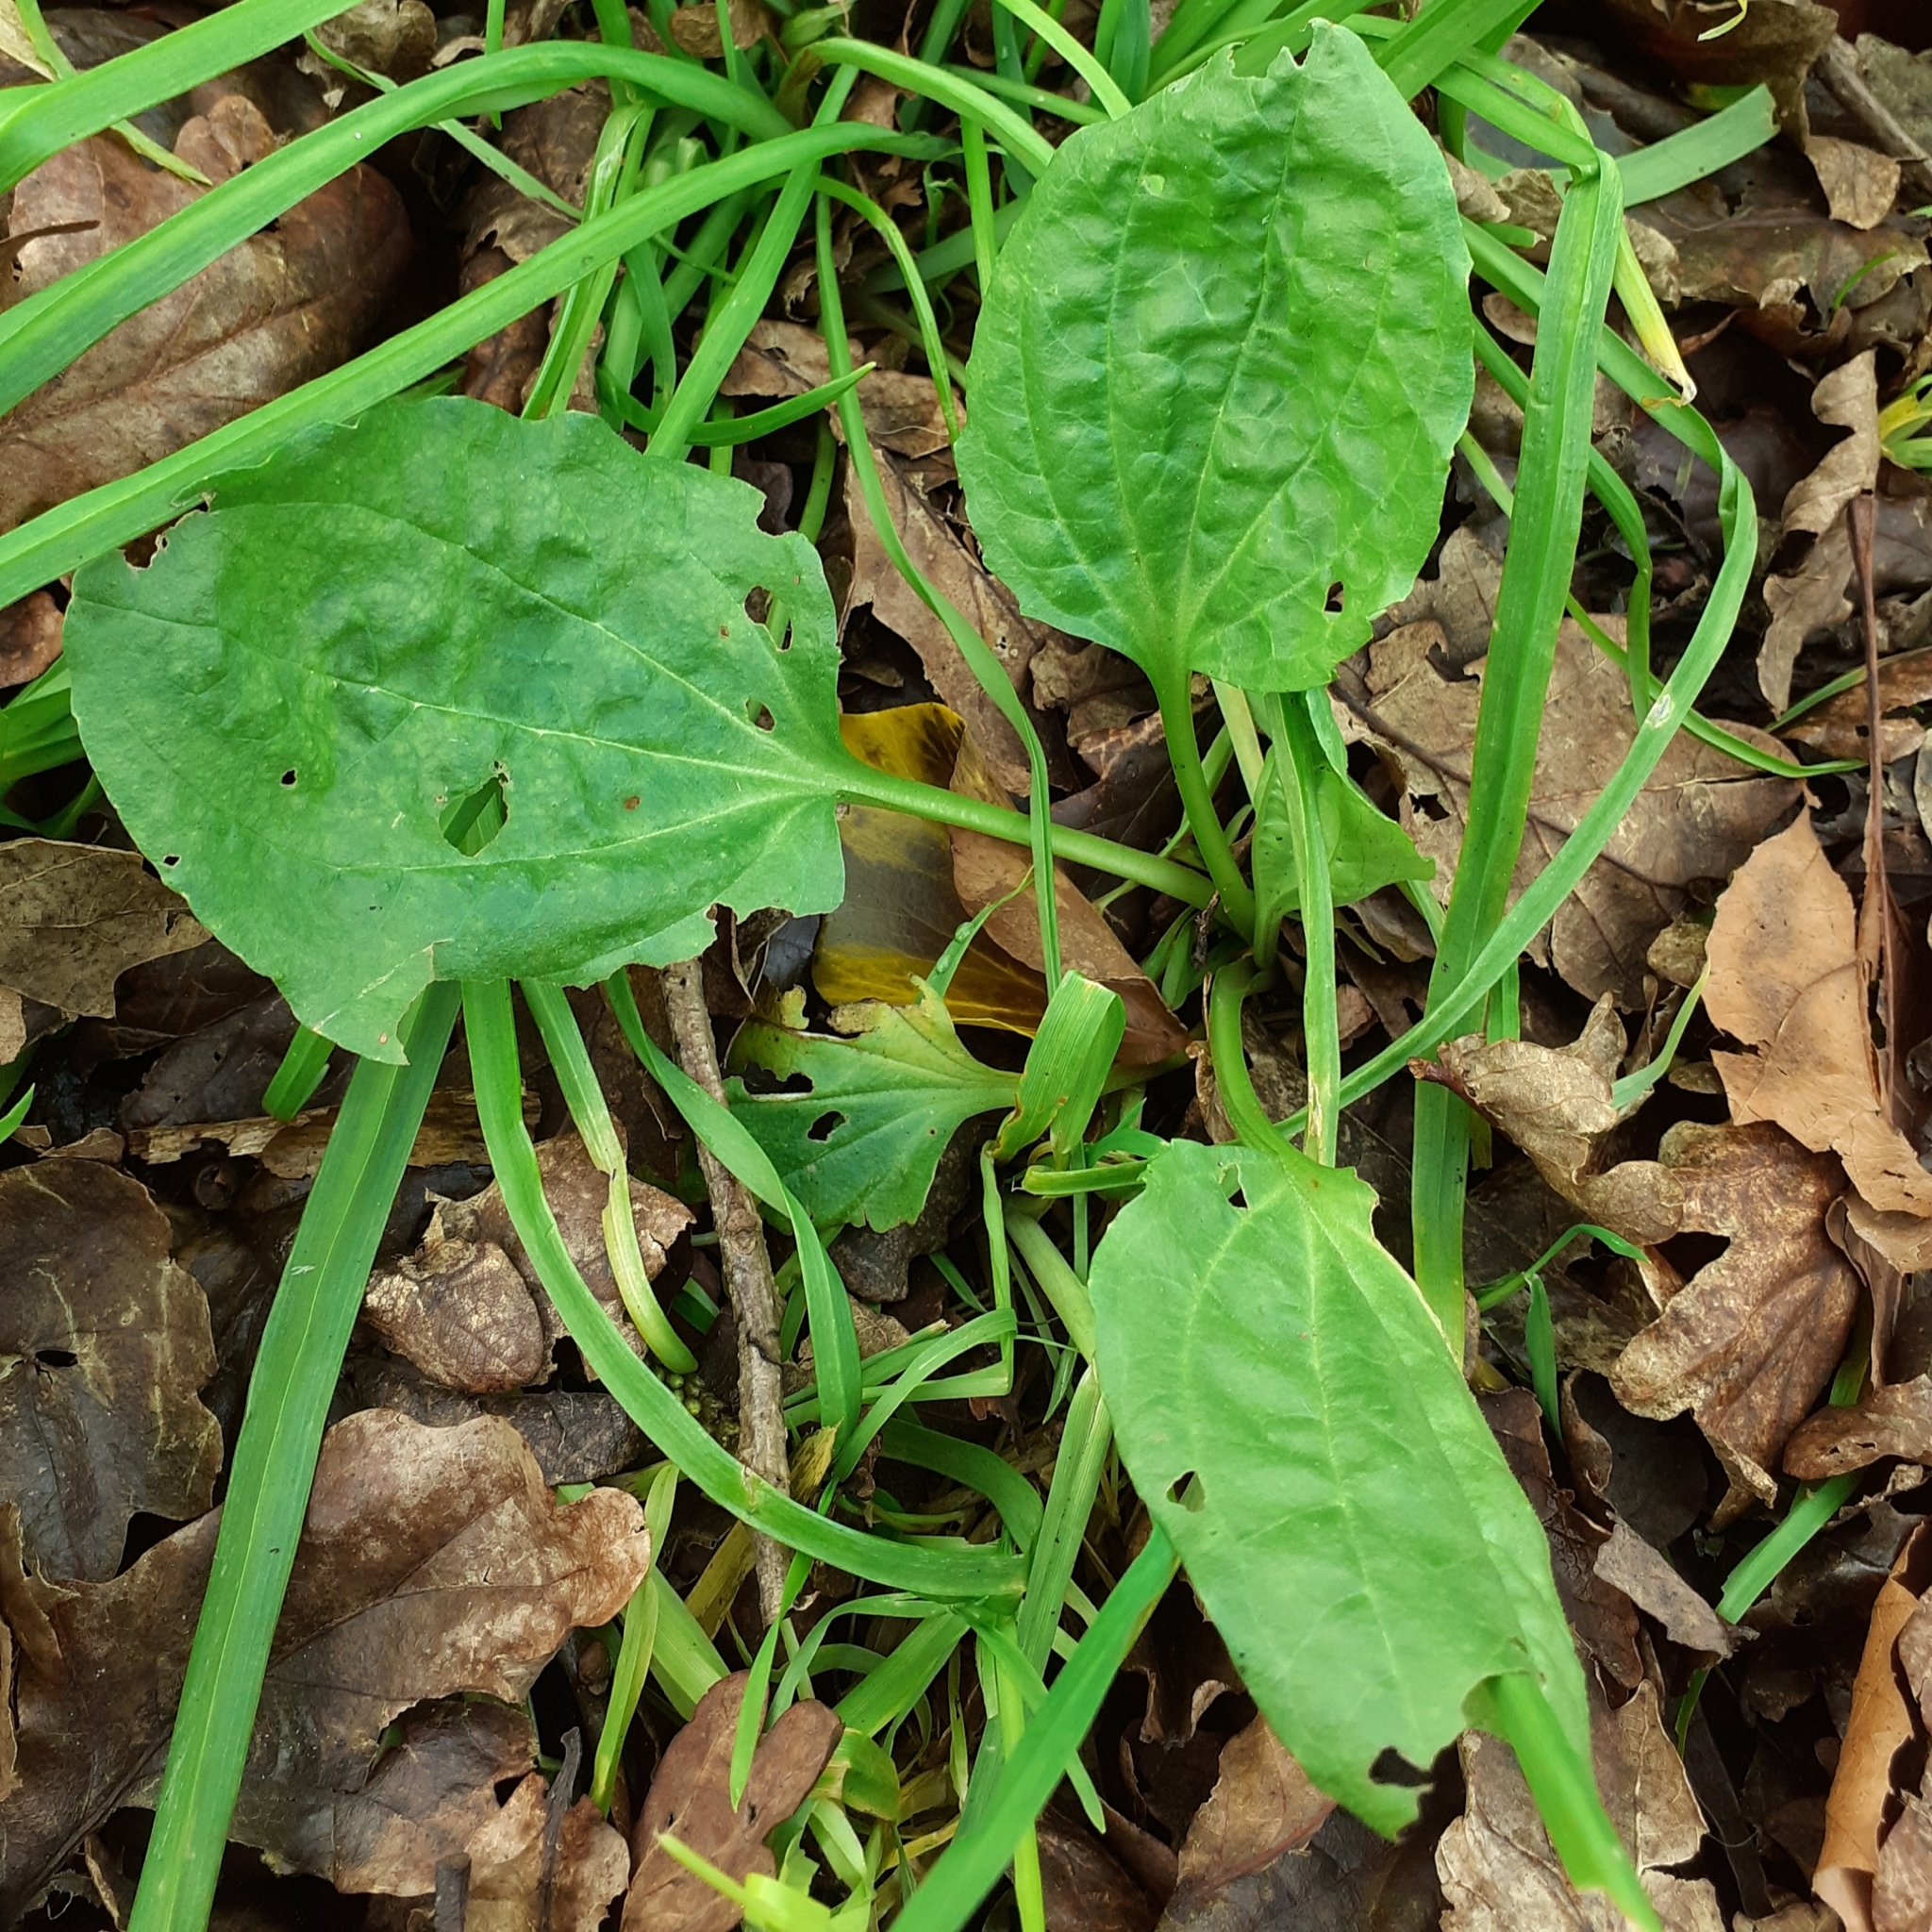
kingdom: Plantae
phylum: Tracheophyta
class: Magnoliopsida
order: Lamiales
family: Plantaginaceae
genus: Plantago
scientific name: Plantago major
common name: Common plantain
